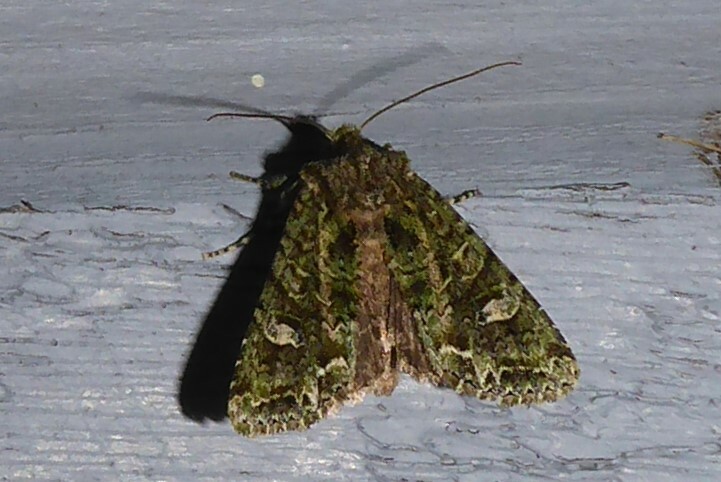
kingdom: Animalia
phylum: Arthropoda
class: Insecta
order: Lepidoptera
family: Noctuidae
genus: Ichneutica
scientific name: Ichneutica
